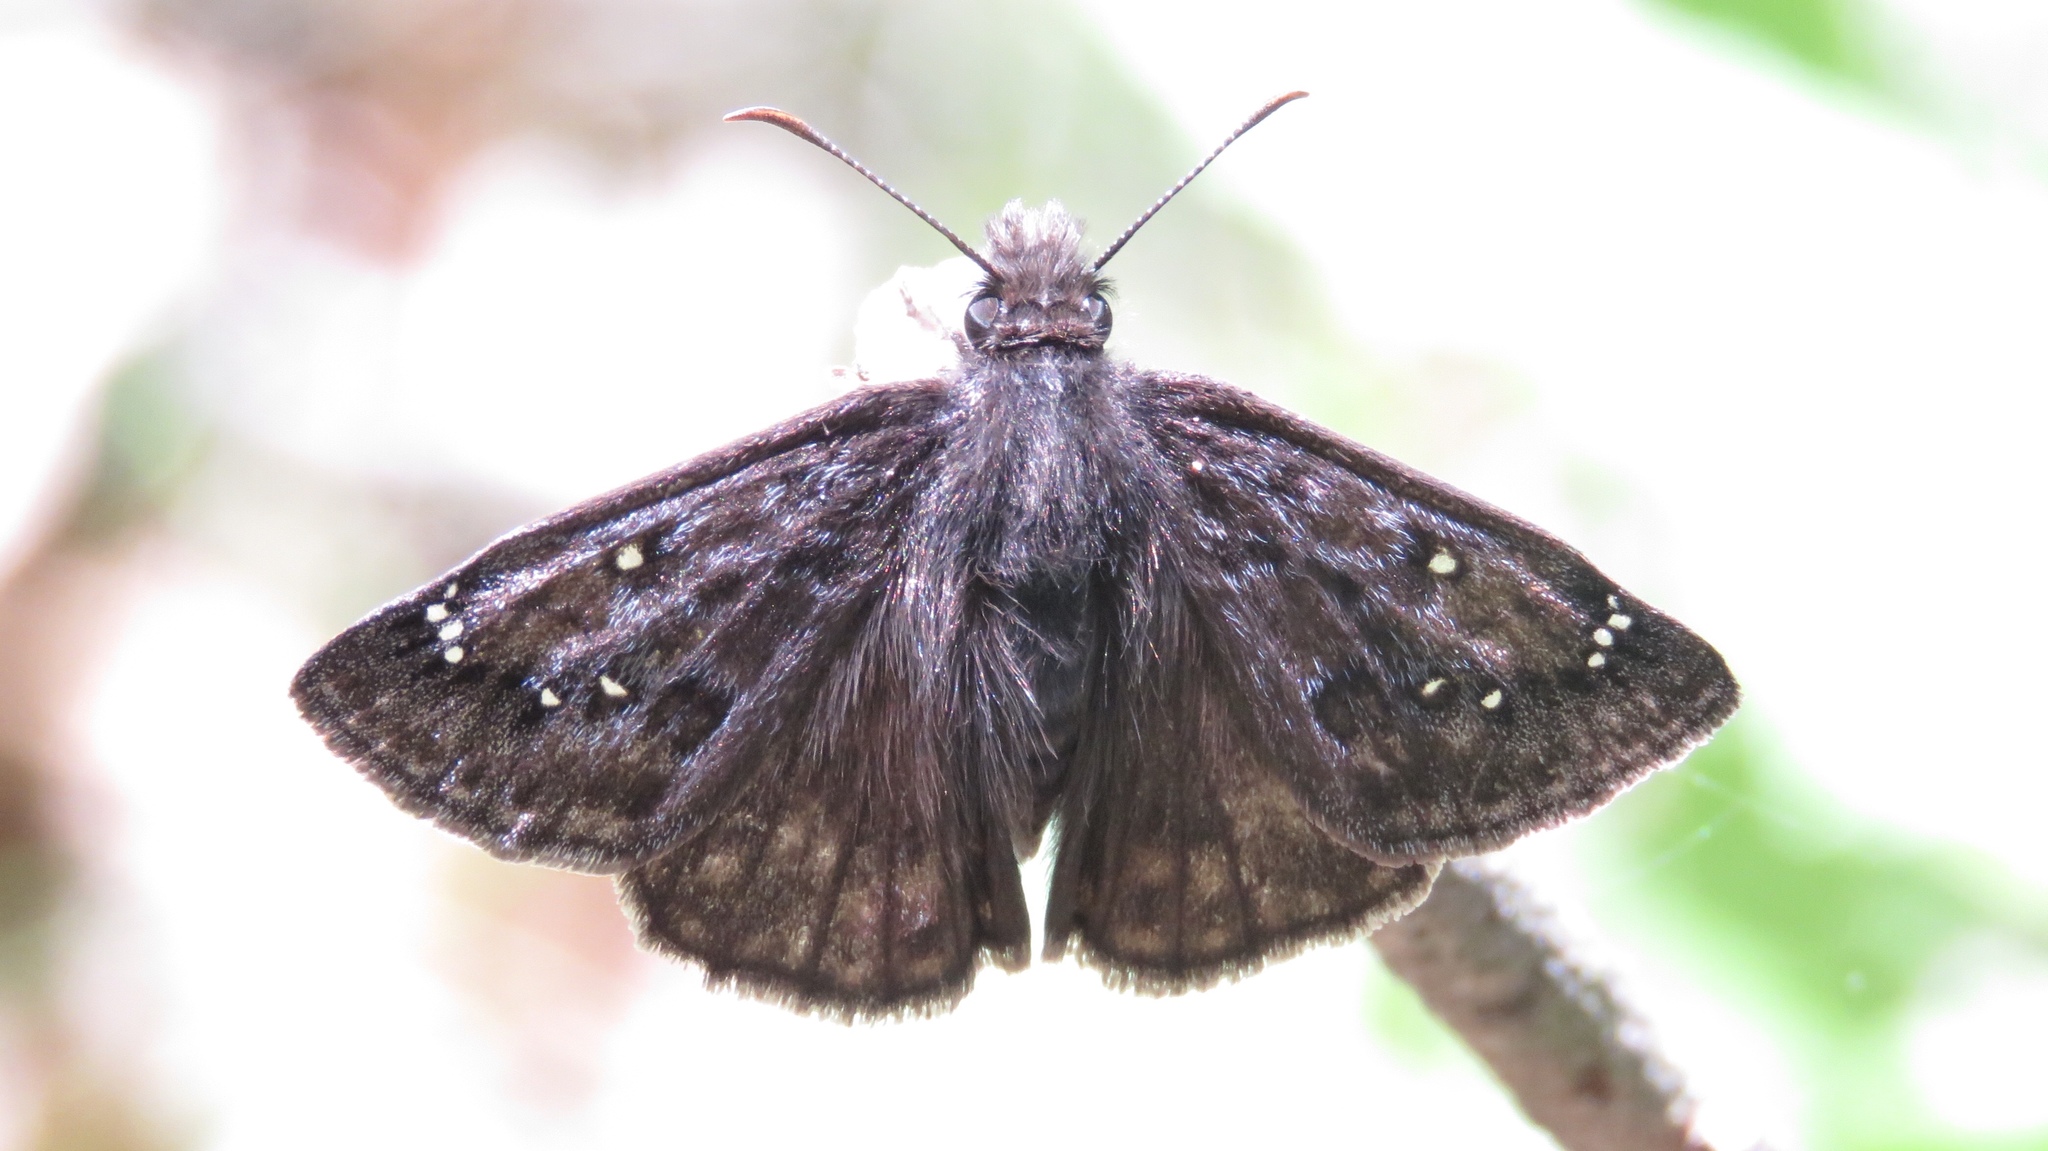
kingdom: Animalia
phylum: Arthropoda
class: Insecta
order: Lepidoptera
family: Hesperiidae
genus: Erynnis
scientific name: Erynnis juvenalis
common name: Juvenal's duskywing
